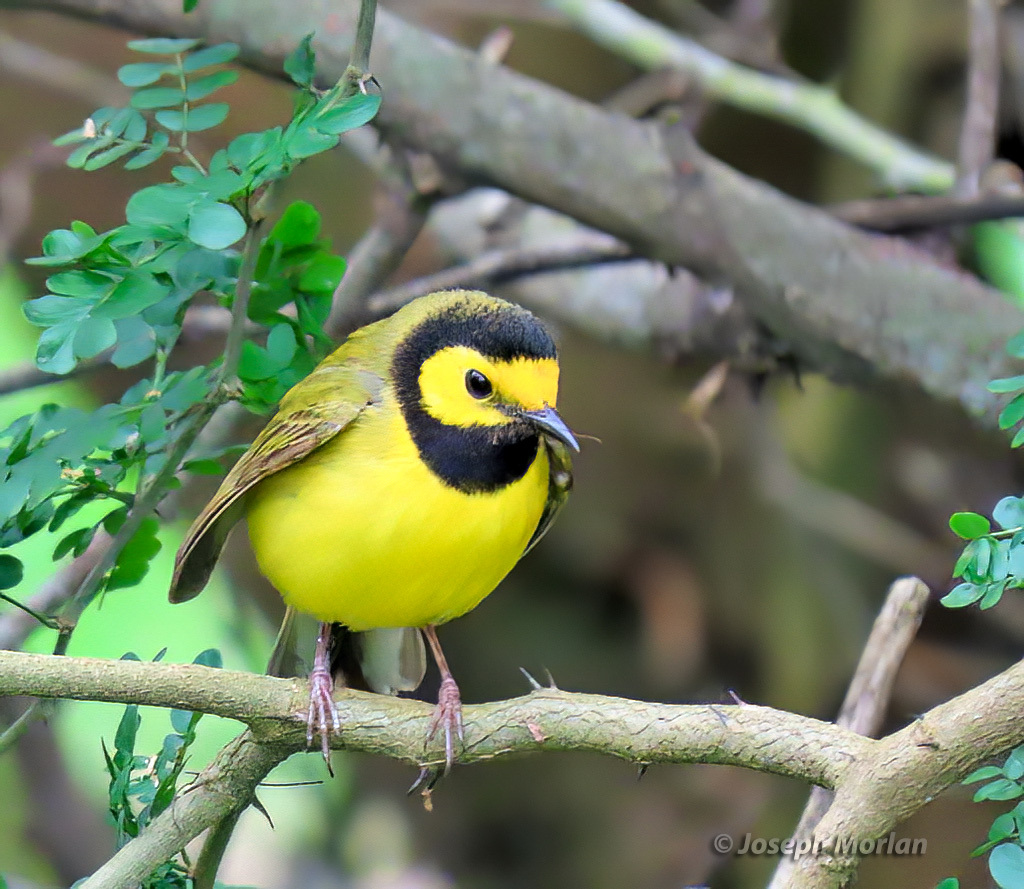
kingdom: Animalia
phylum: Chordata
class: Aves
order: Passeriformes
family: Parulidae
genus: Setophaga
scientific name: Setophaga citrina
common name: Hooded warbler
